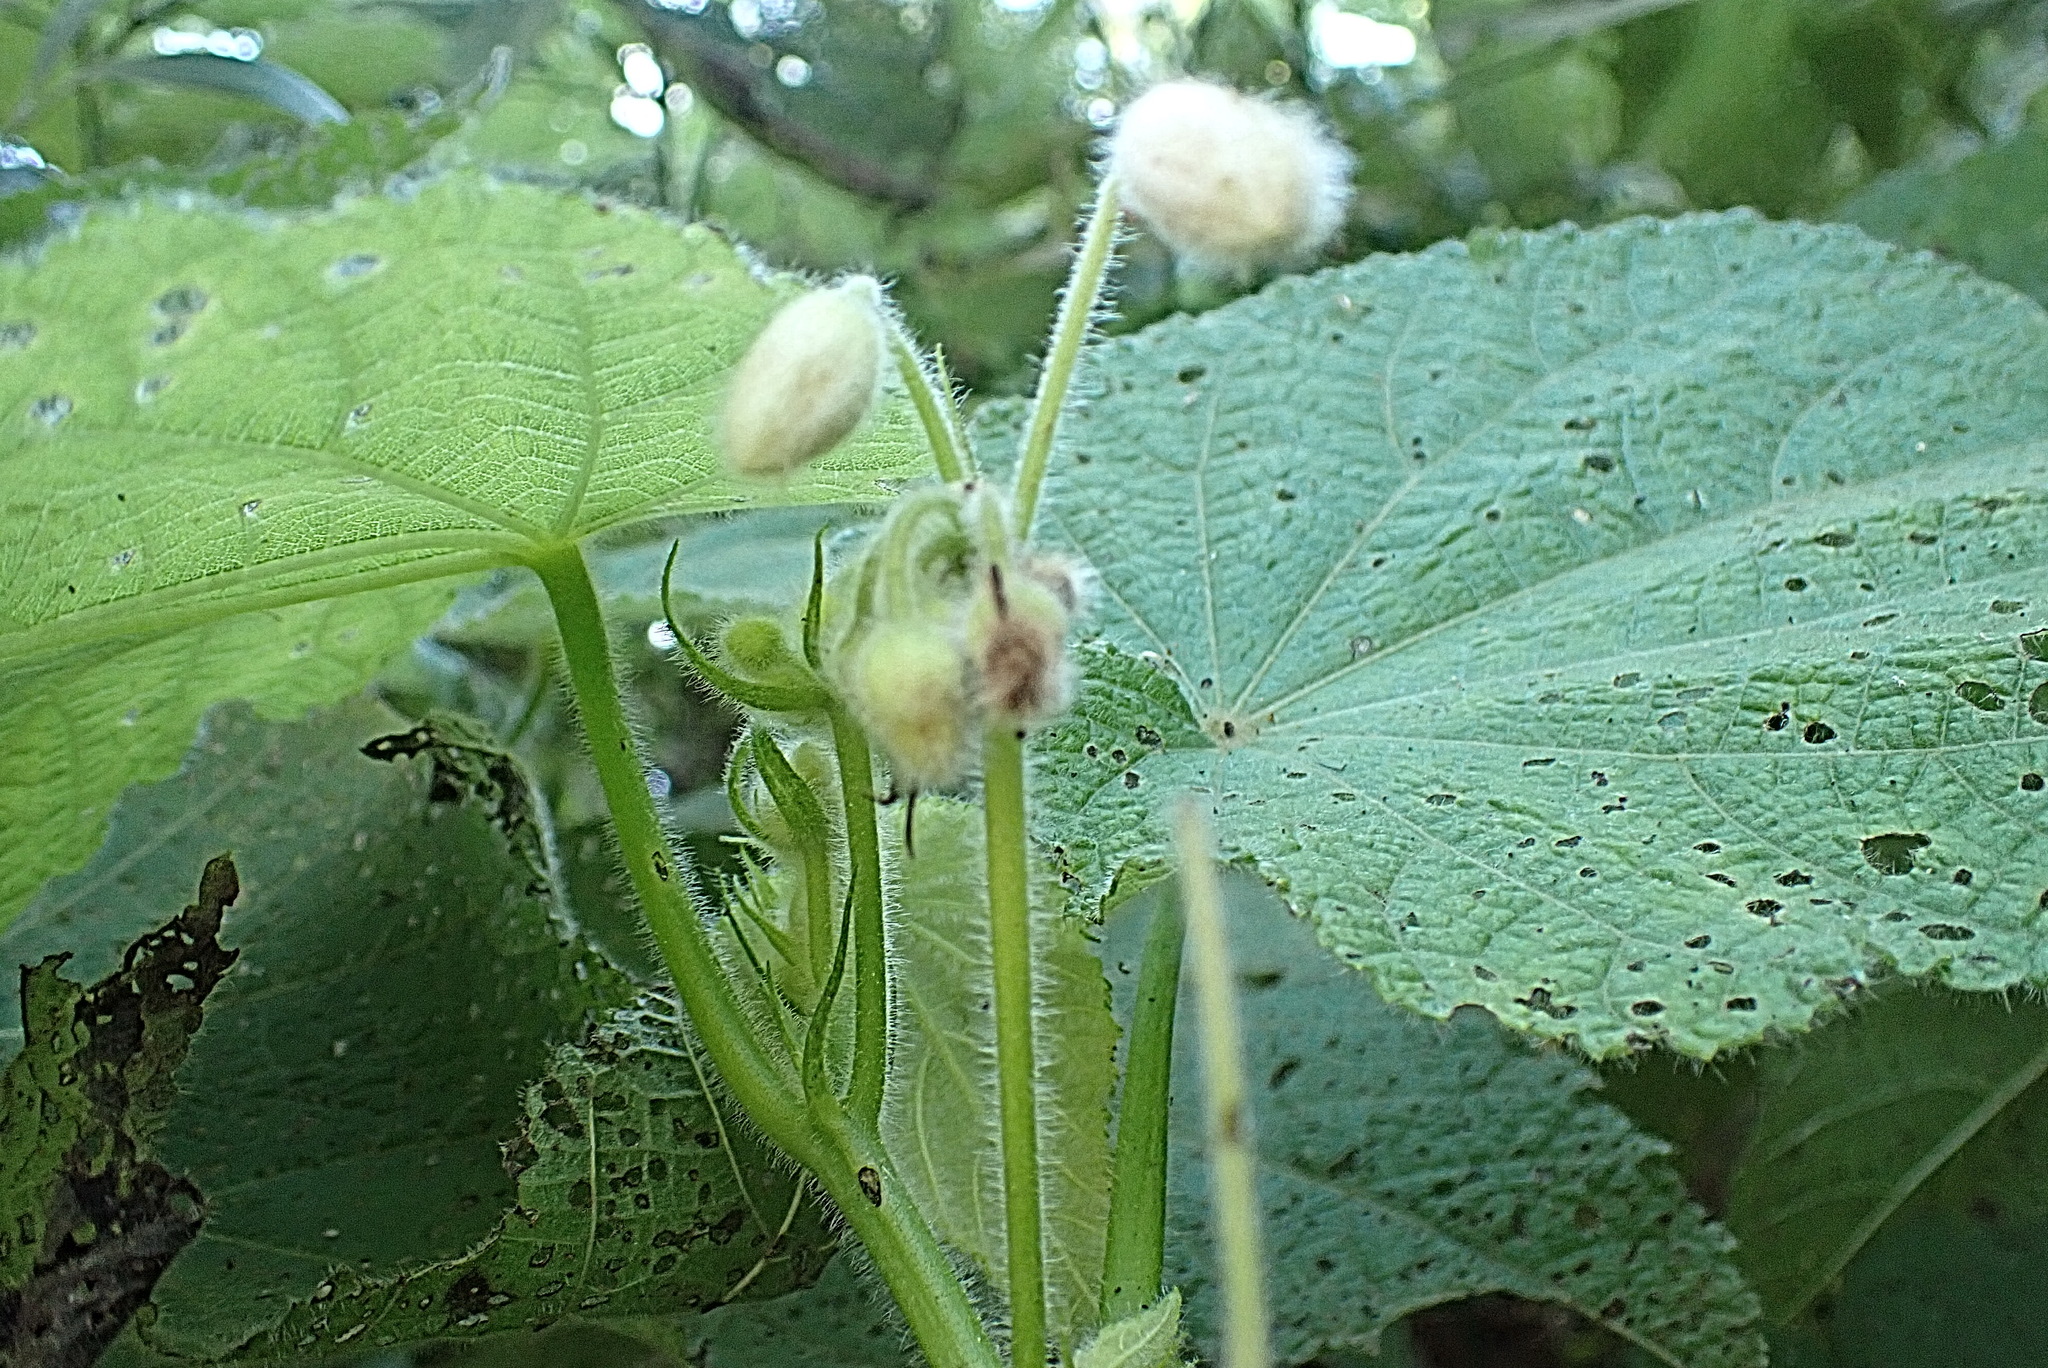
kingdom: Plantae
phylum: Tracheophyta
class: Magnoliopsida
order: Malvales
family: Malvaceae
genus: Sparrmannia
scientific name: Sparrmannia africana
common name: African-hemp
